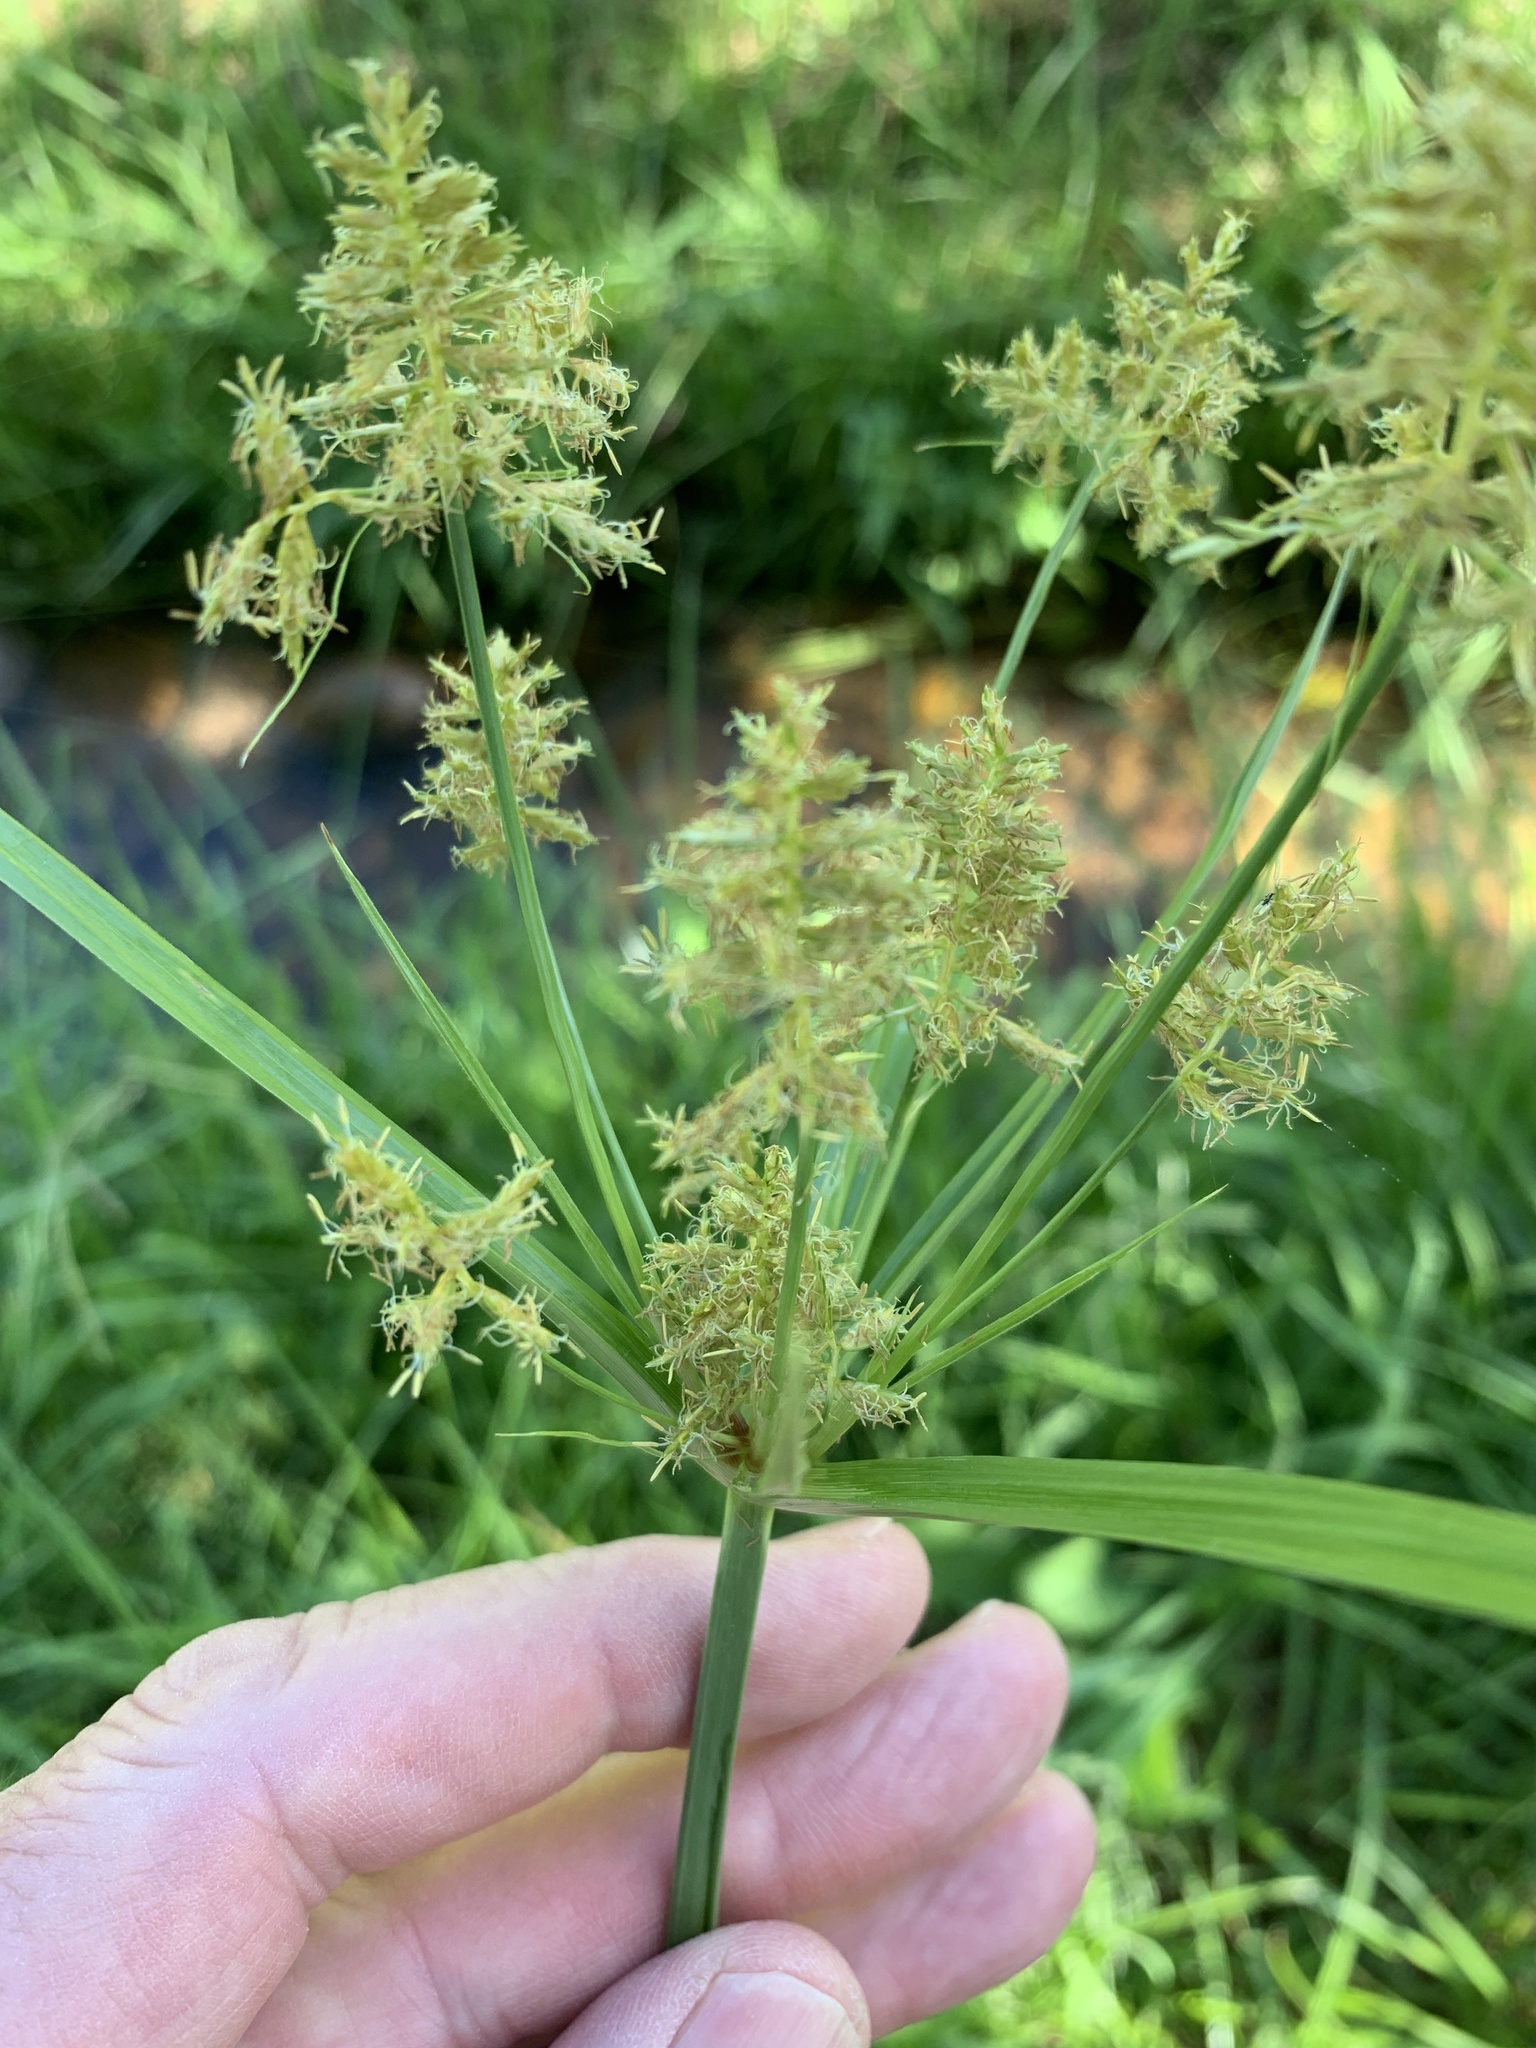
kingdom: Plantae
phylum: Tracheophyta
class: Liliopsida
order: Poales
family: Cyperaceae
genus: Cyperus
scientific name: Cyperus esculentus
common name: Yellow nutsedge
